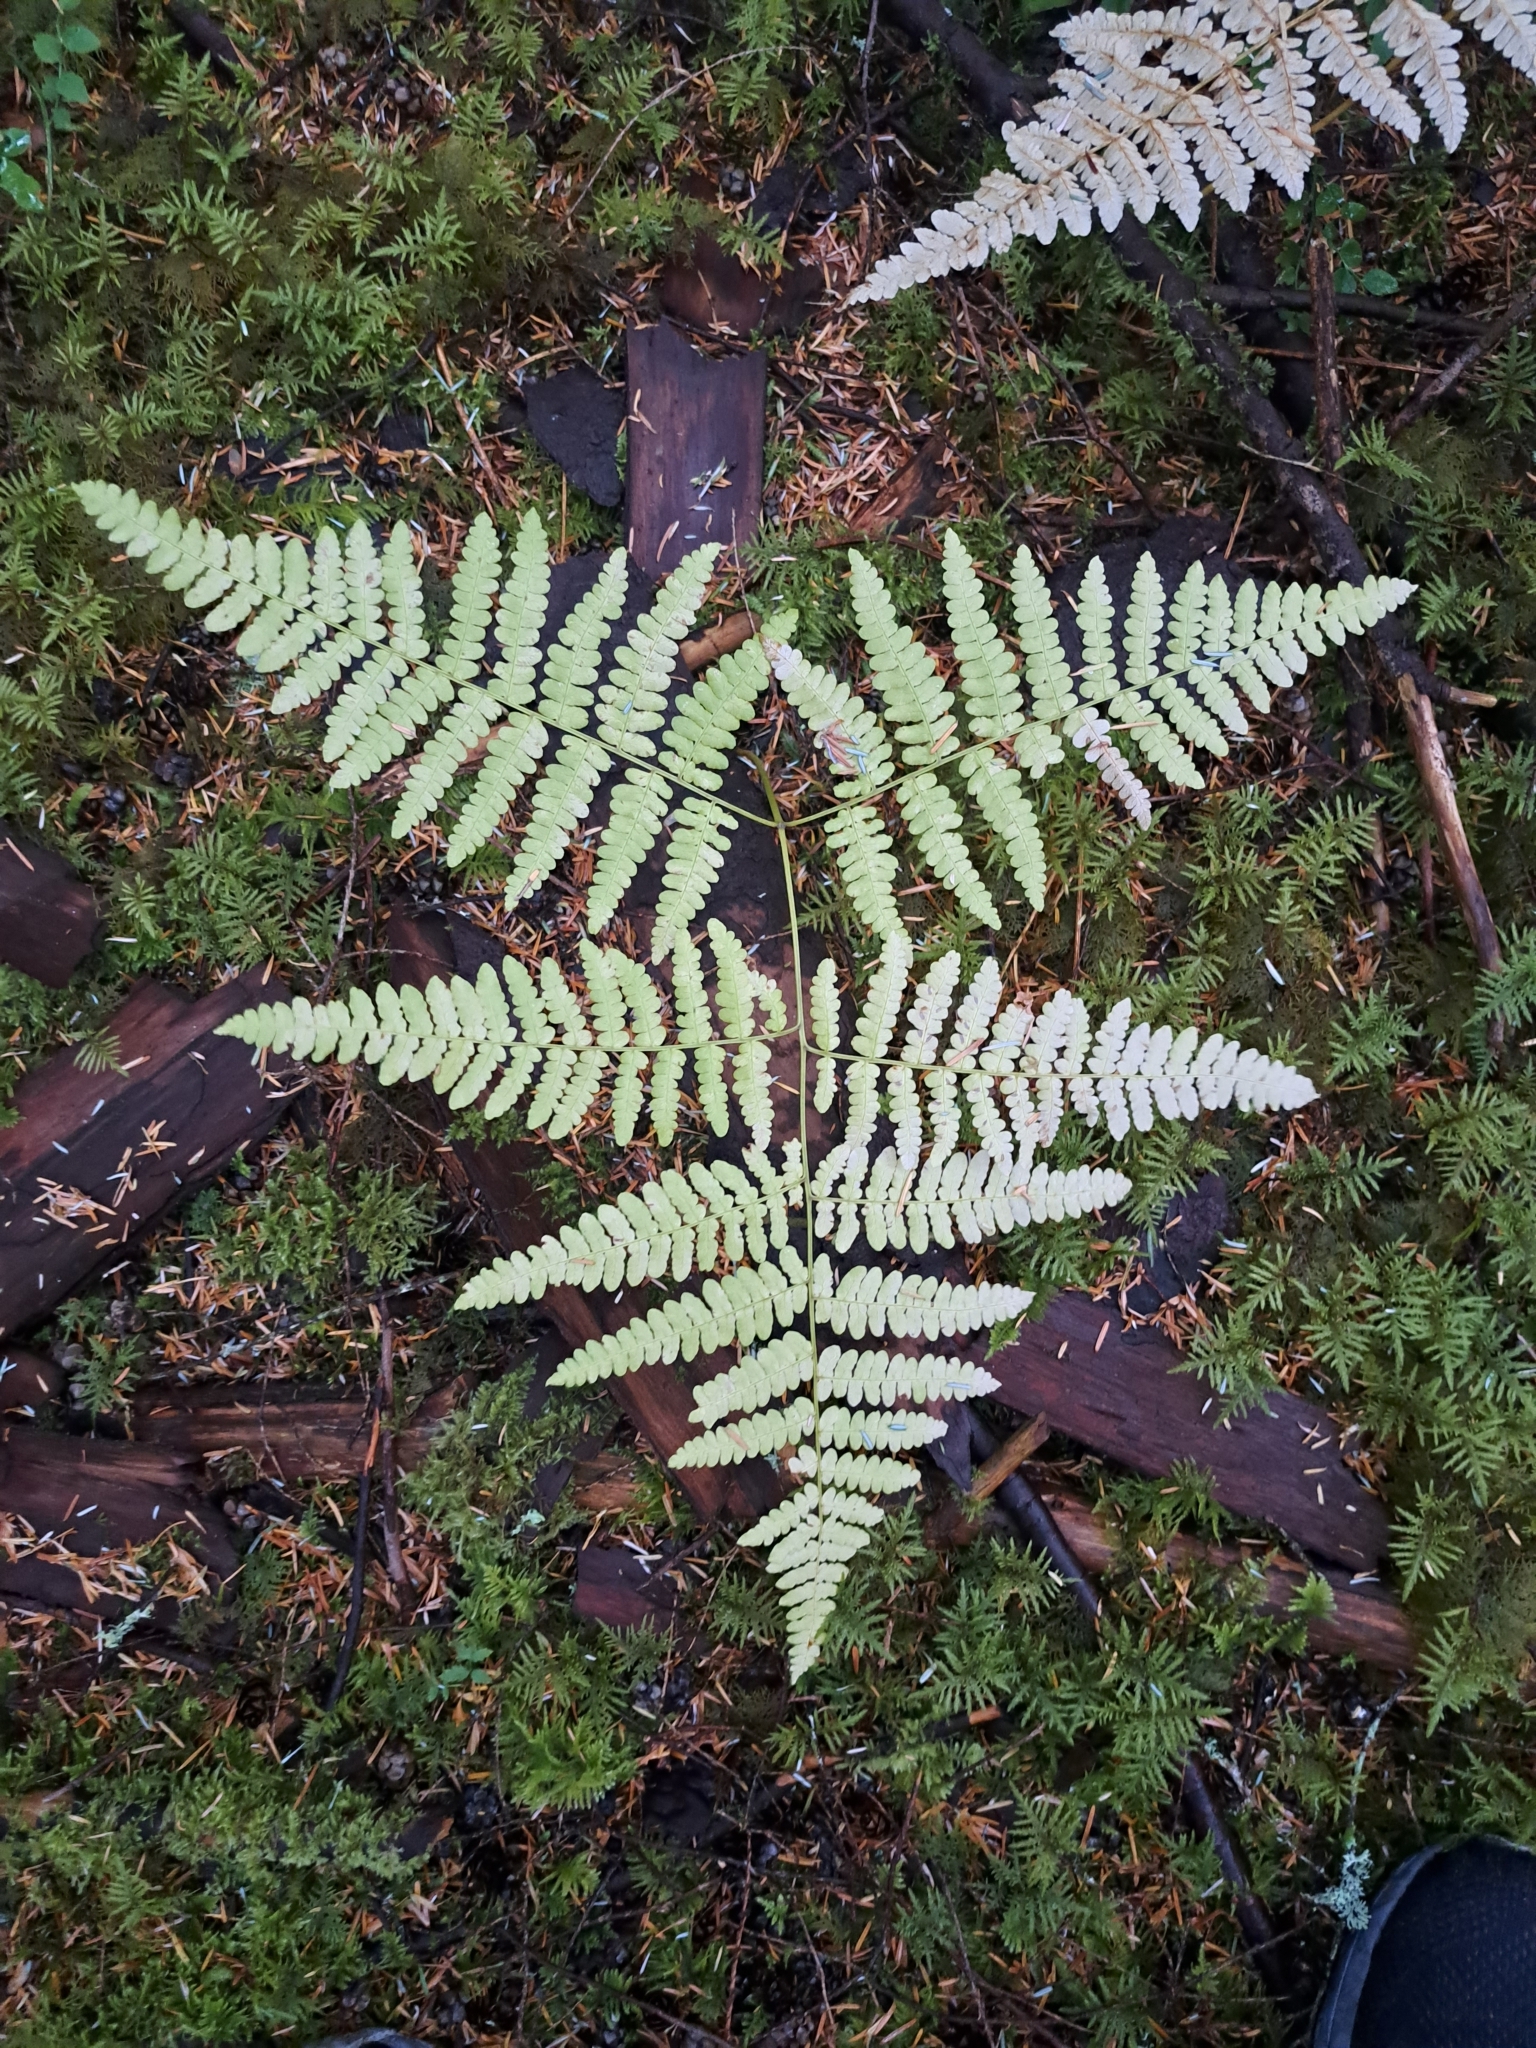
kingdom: Plantae
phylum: Tracheophyta
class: Polypodiopsida
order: Polypodiales
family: Dennstaedtiaceae
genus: Pteridium
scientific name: Pteridium aquilinum
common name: Bracken
